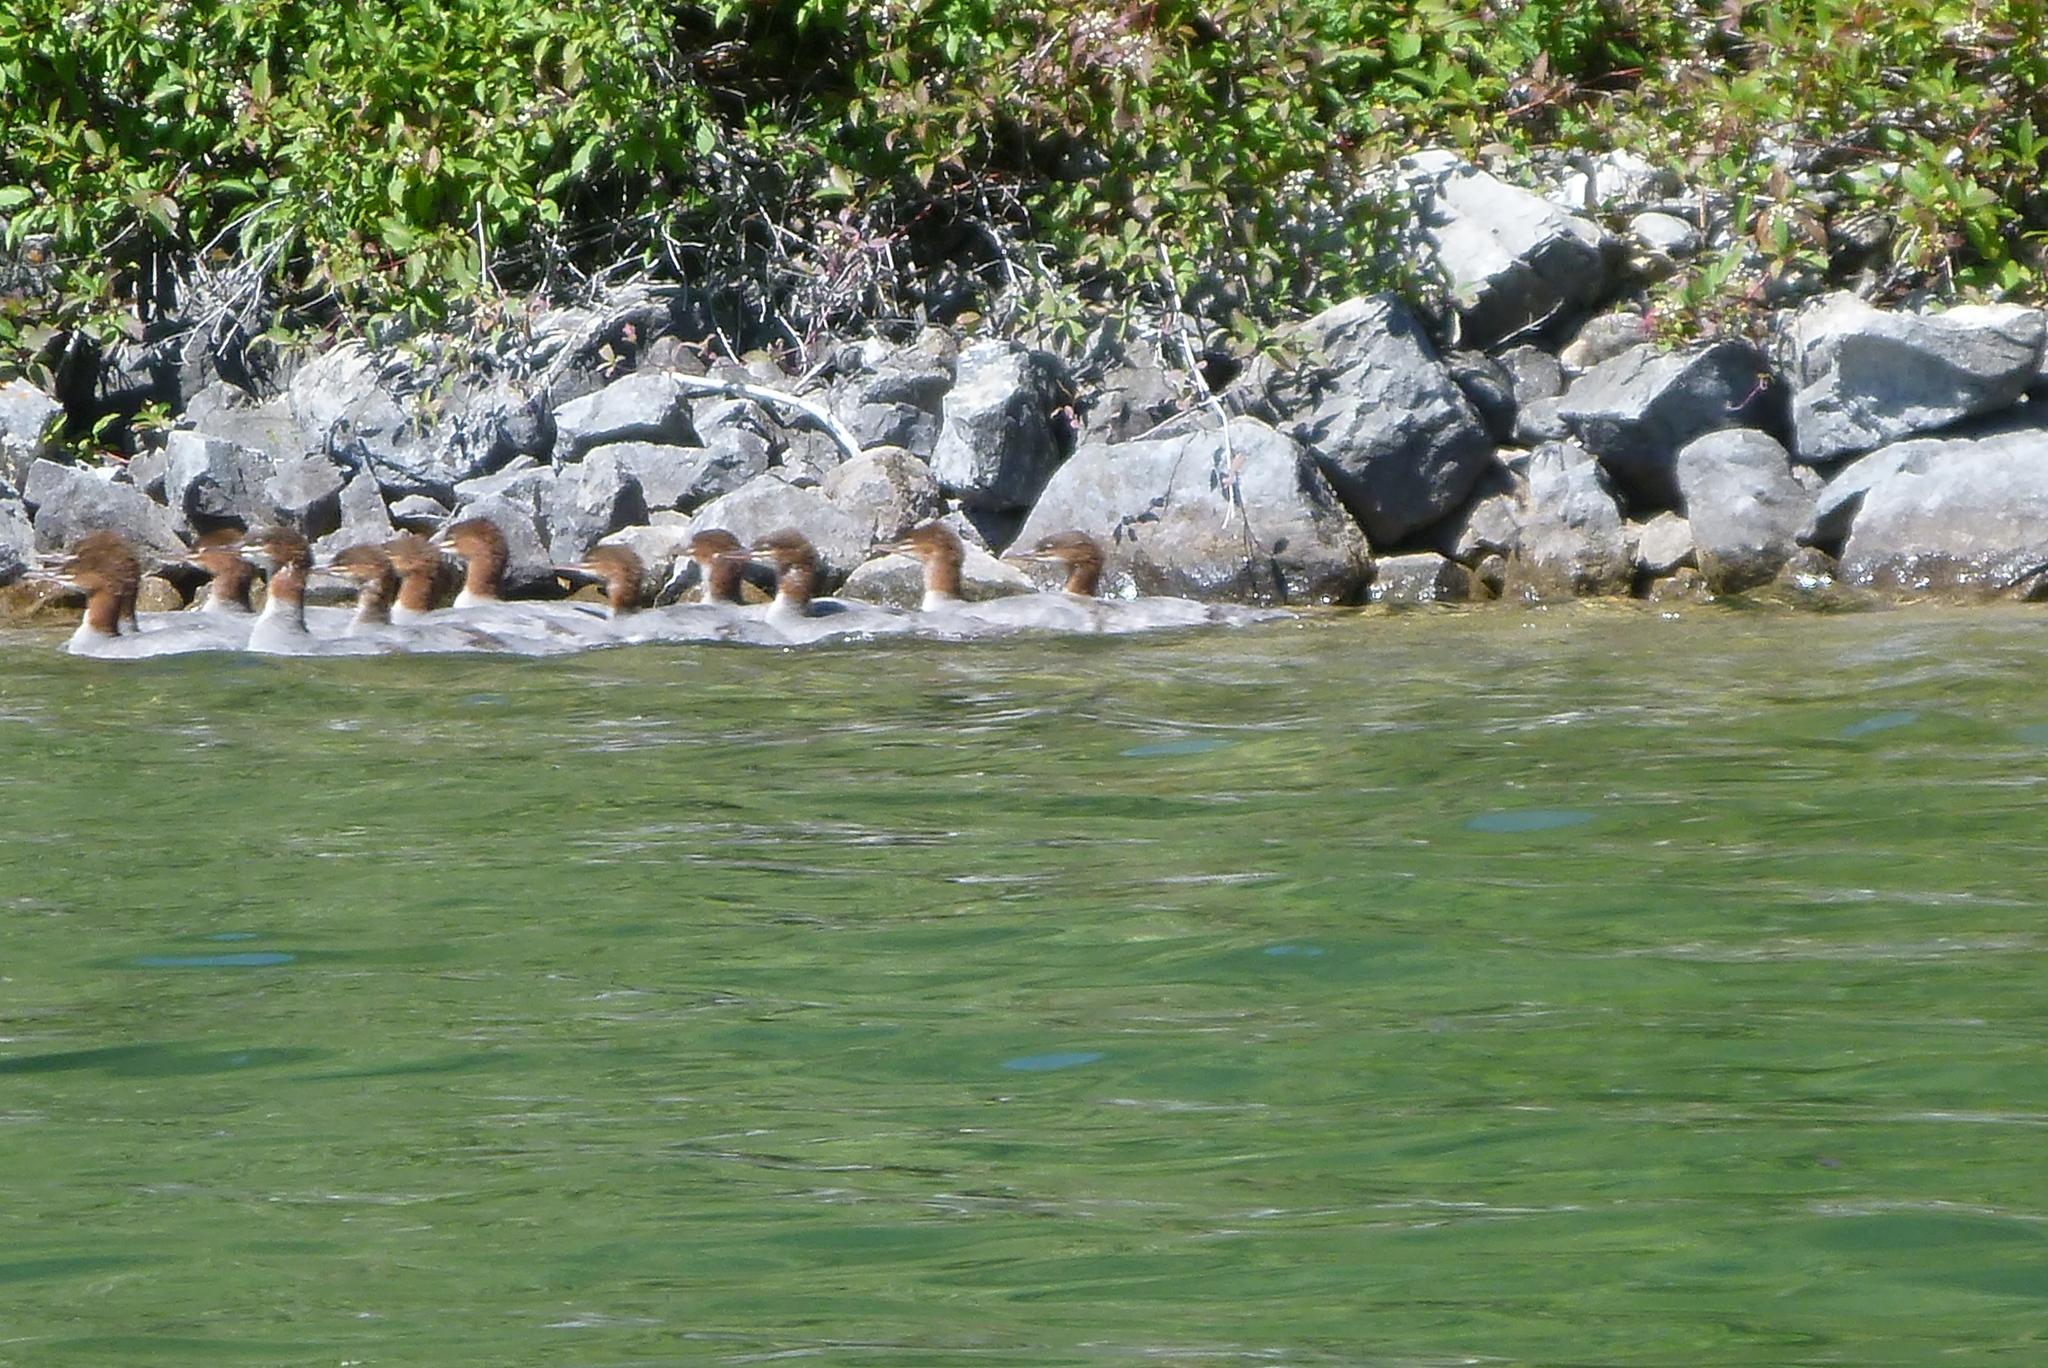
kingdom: Animalia
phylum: Chordata
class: Aves
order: Anseriformes
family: Anatidae
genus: Mergus
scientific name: Mergus merganser
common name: Common merganser
